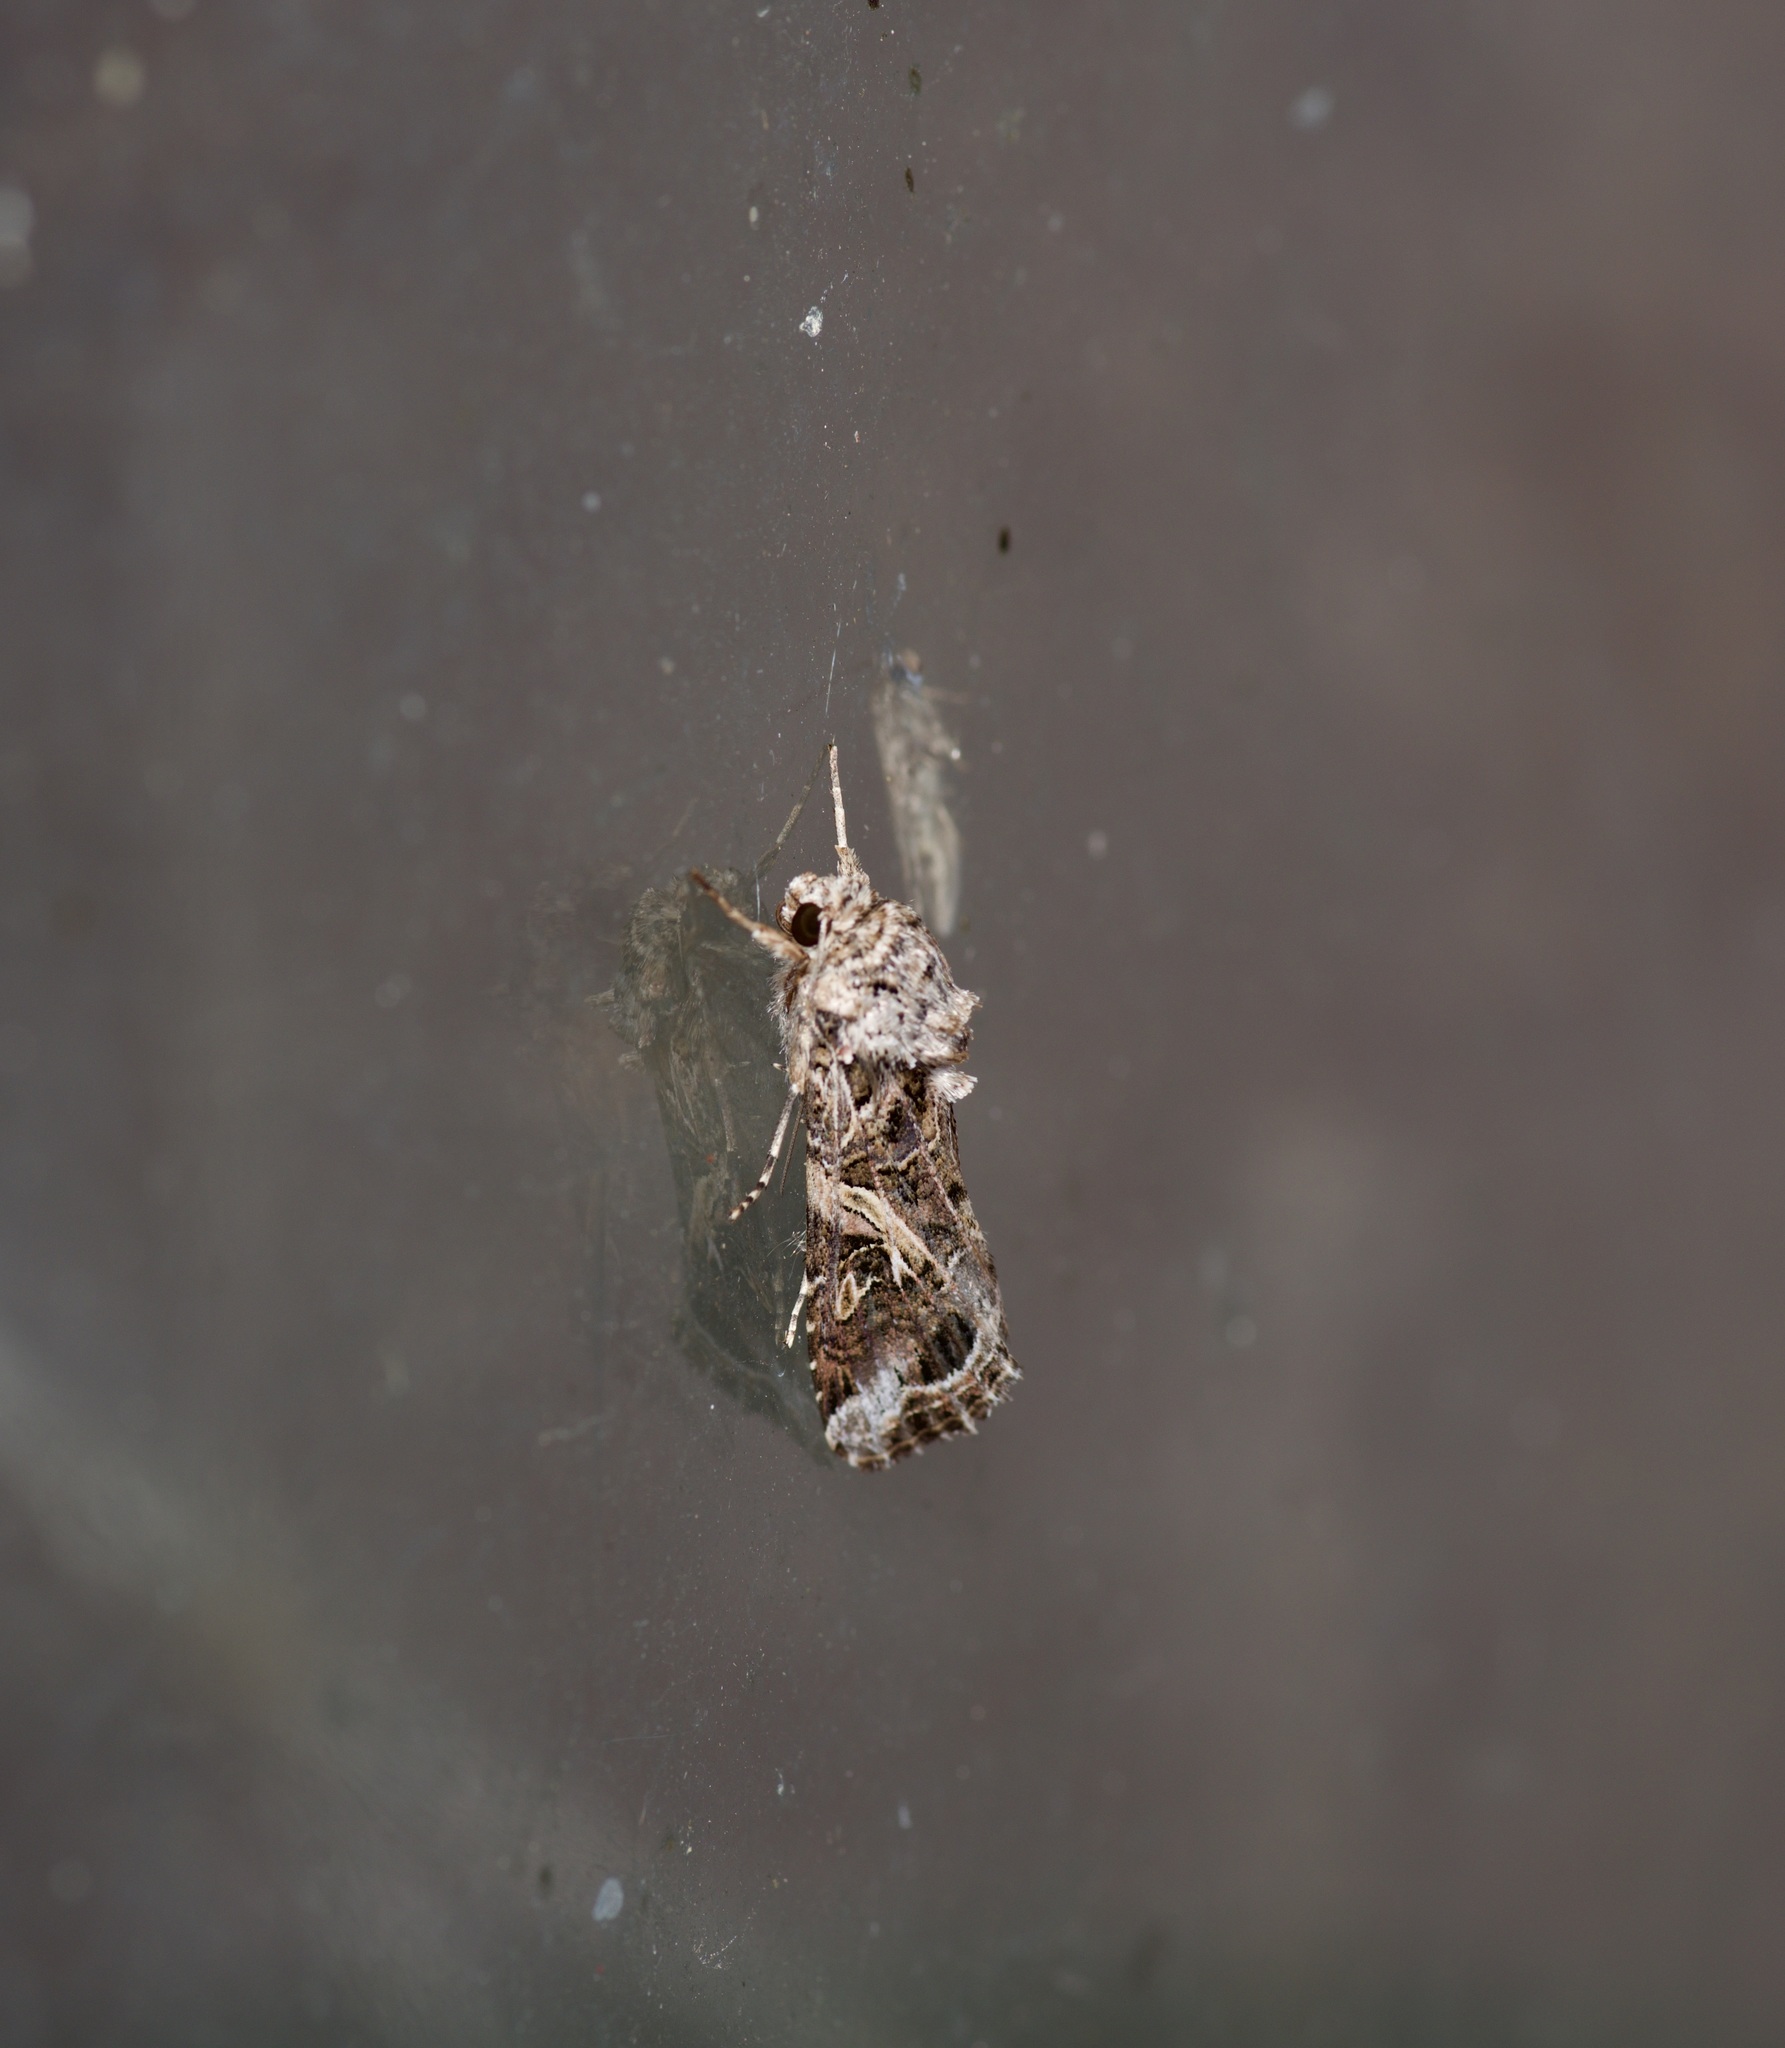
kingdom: Animalia
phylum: Arthropoda
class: Insecta
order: Lepidoptera
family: Noctuidae
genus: Spodoptera
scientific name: Spodoptera ornithogalli
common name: Yellow-striped armyworm
